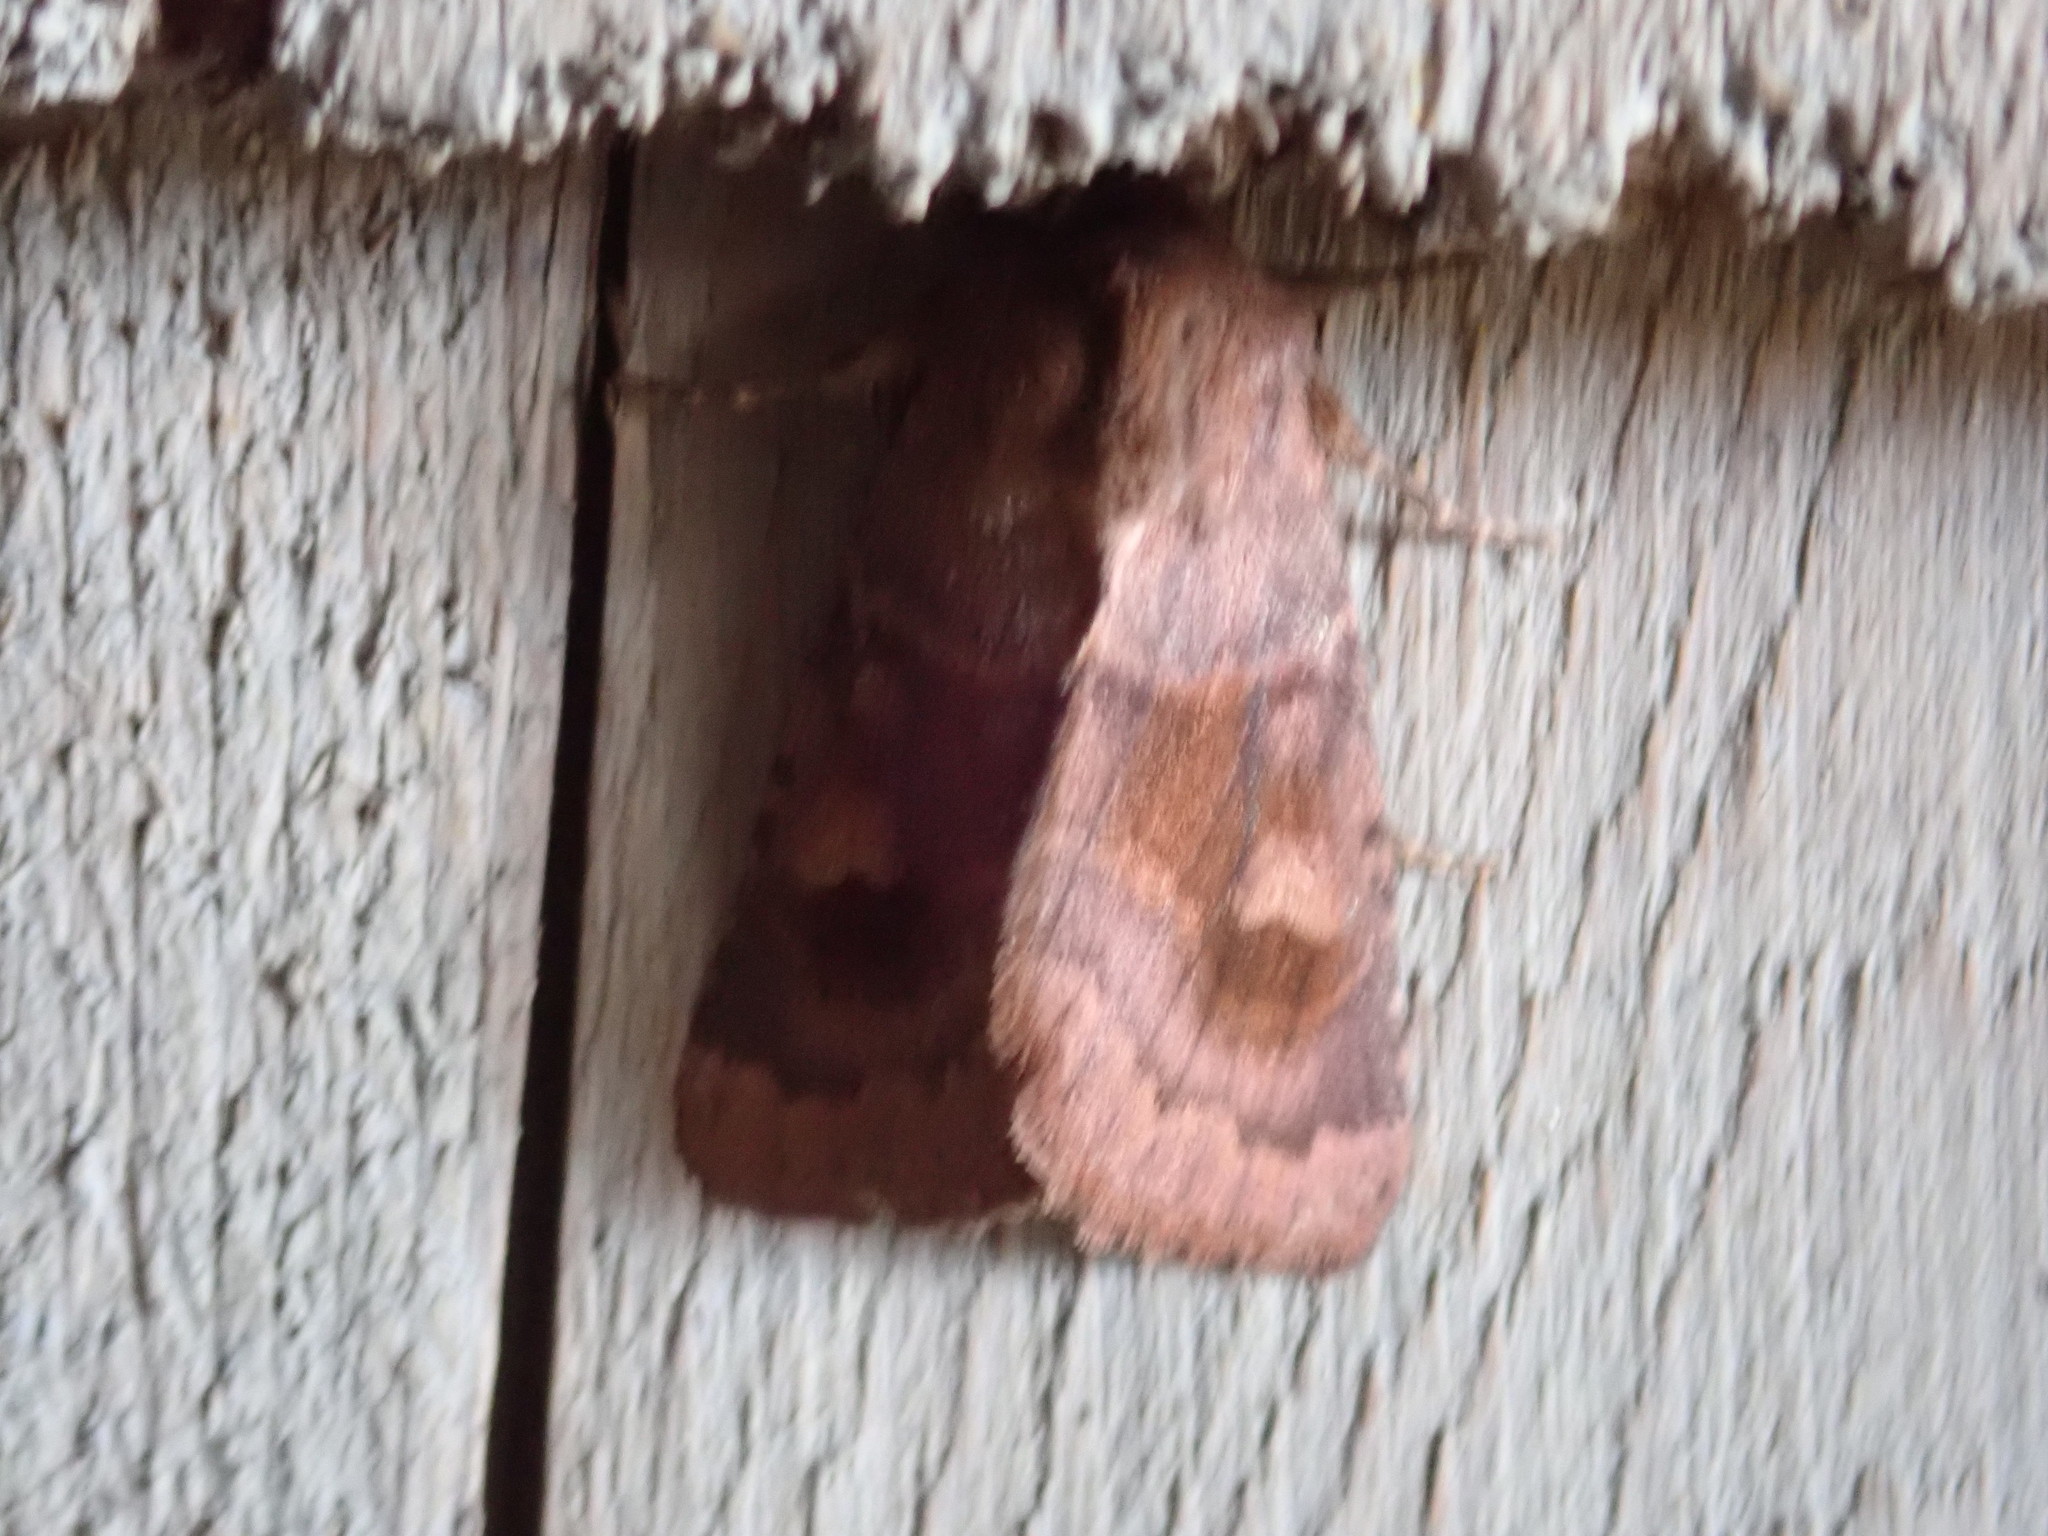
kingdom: Animalia
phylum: Arthropoda
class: Insecta
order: Lepidoptera
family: Noctuidae
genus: Nephelodes
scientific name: Nephelodes minians
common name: Bronzed cutworm
